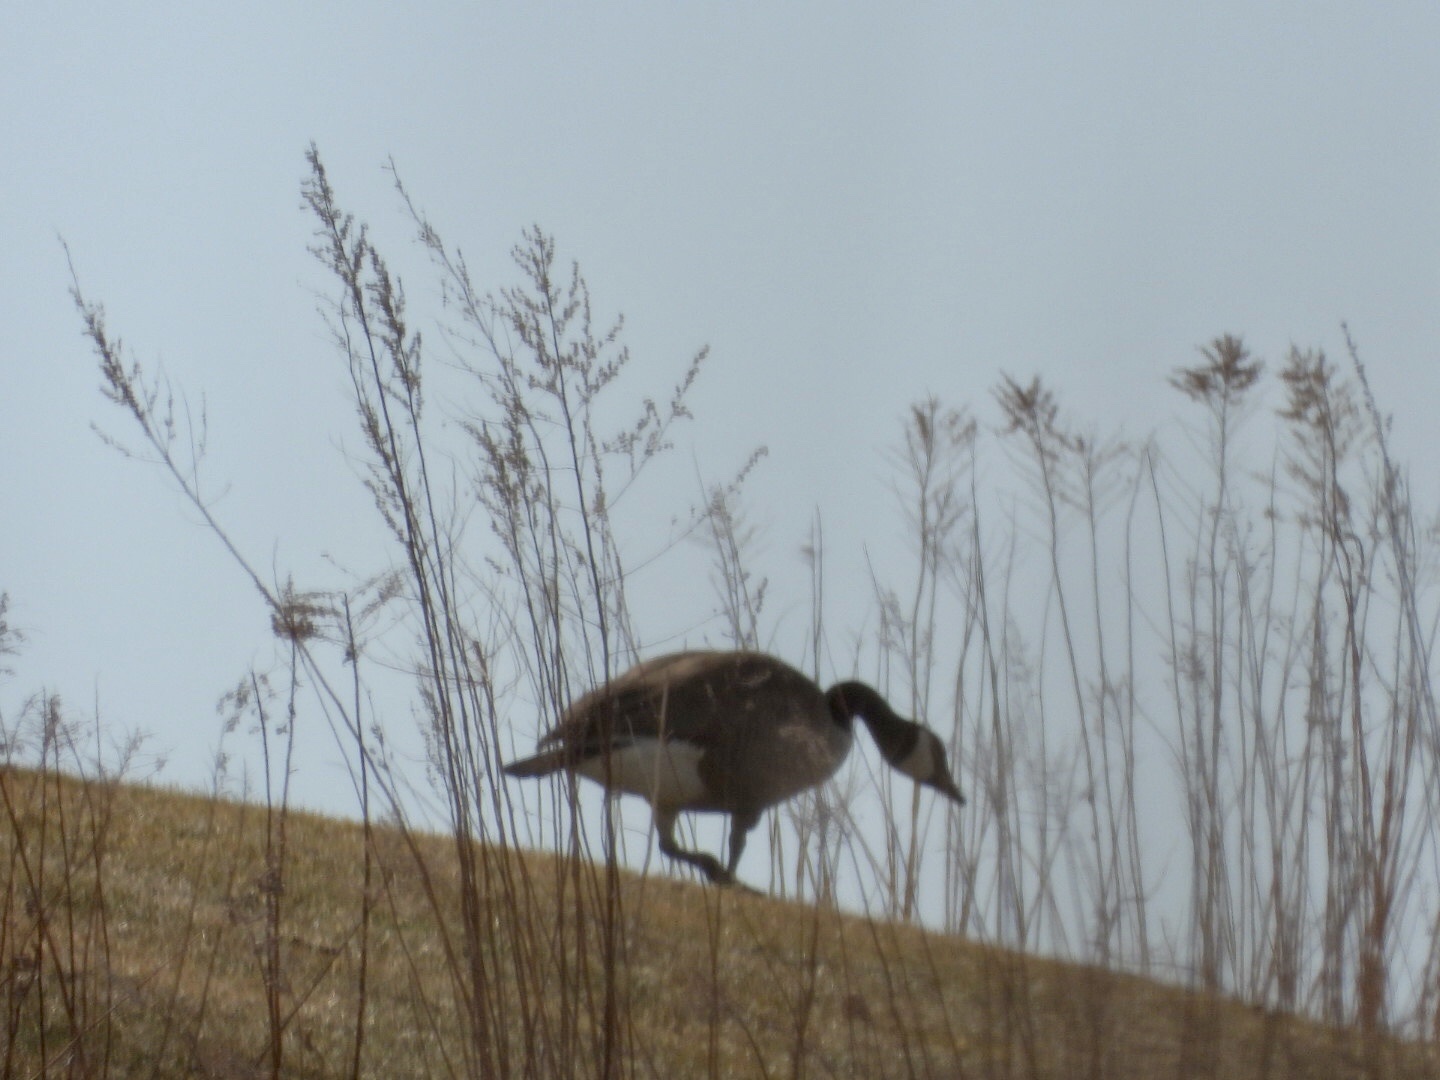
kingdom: Animalia
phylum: Chordata
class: Aves
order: Anseriformes
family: Anatidae
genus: Branta
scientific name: Branta canadensis
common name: Canada goose
